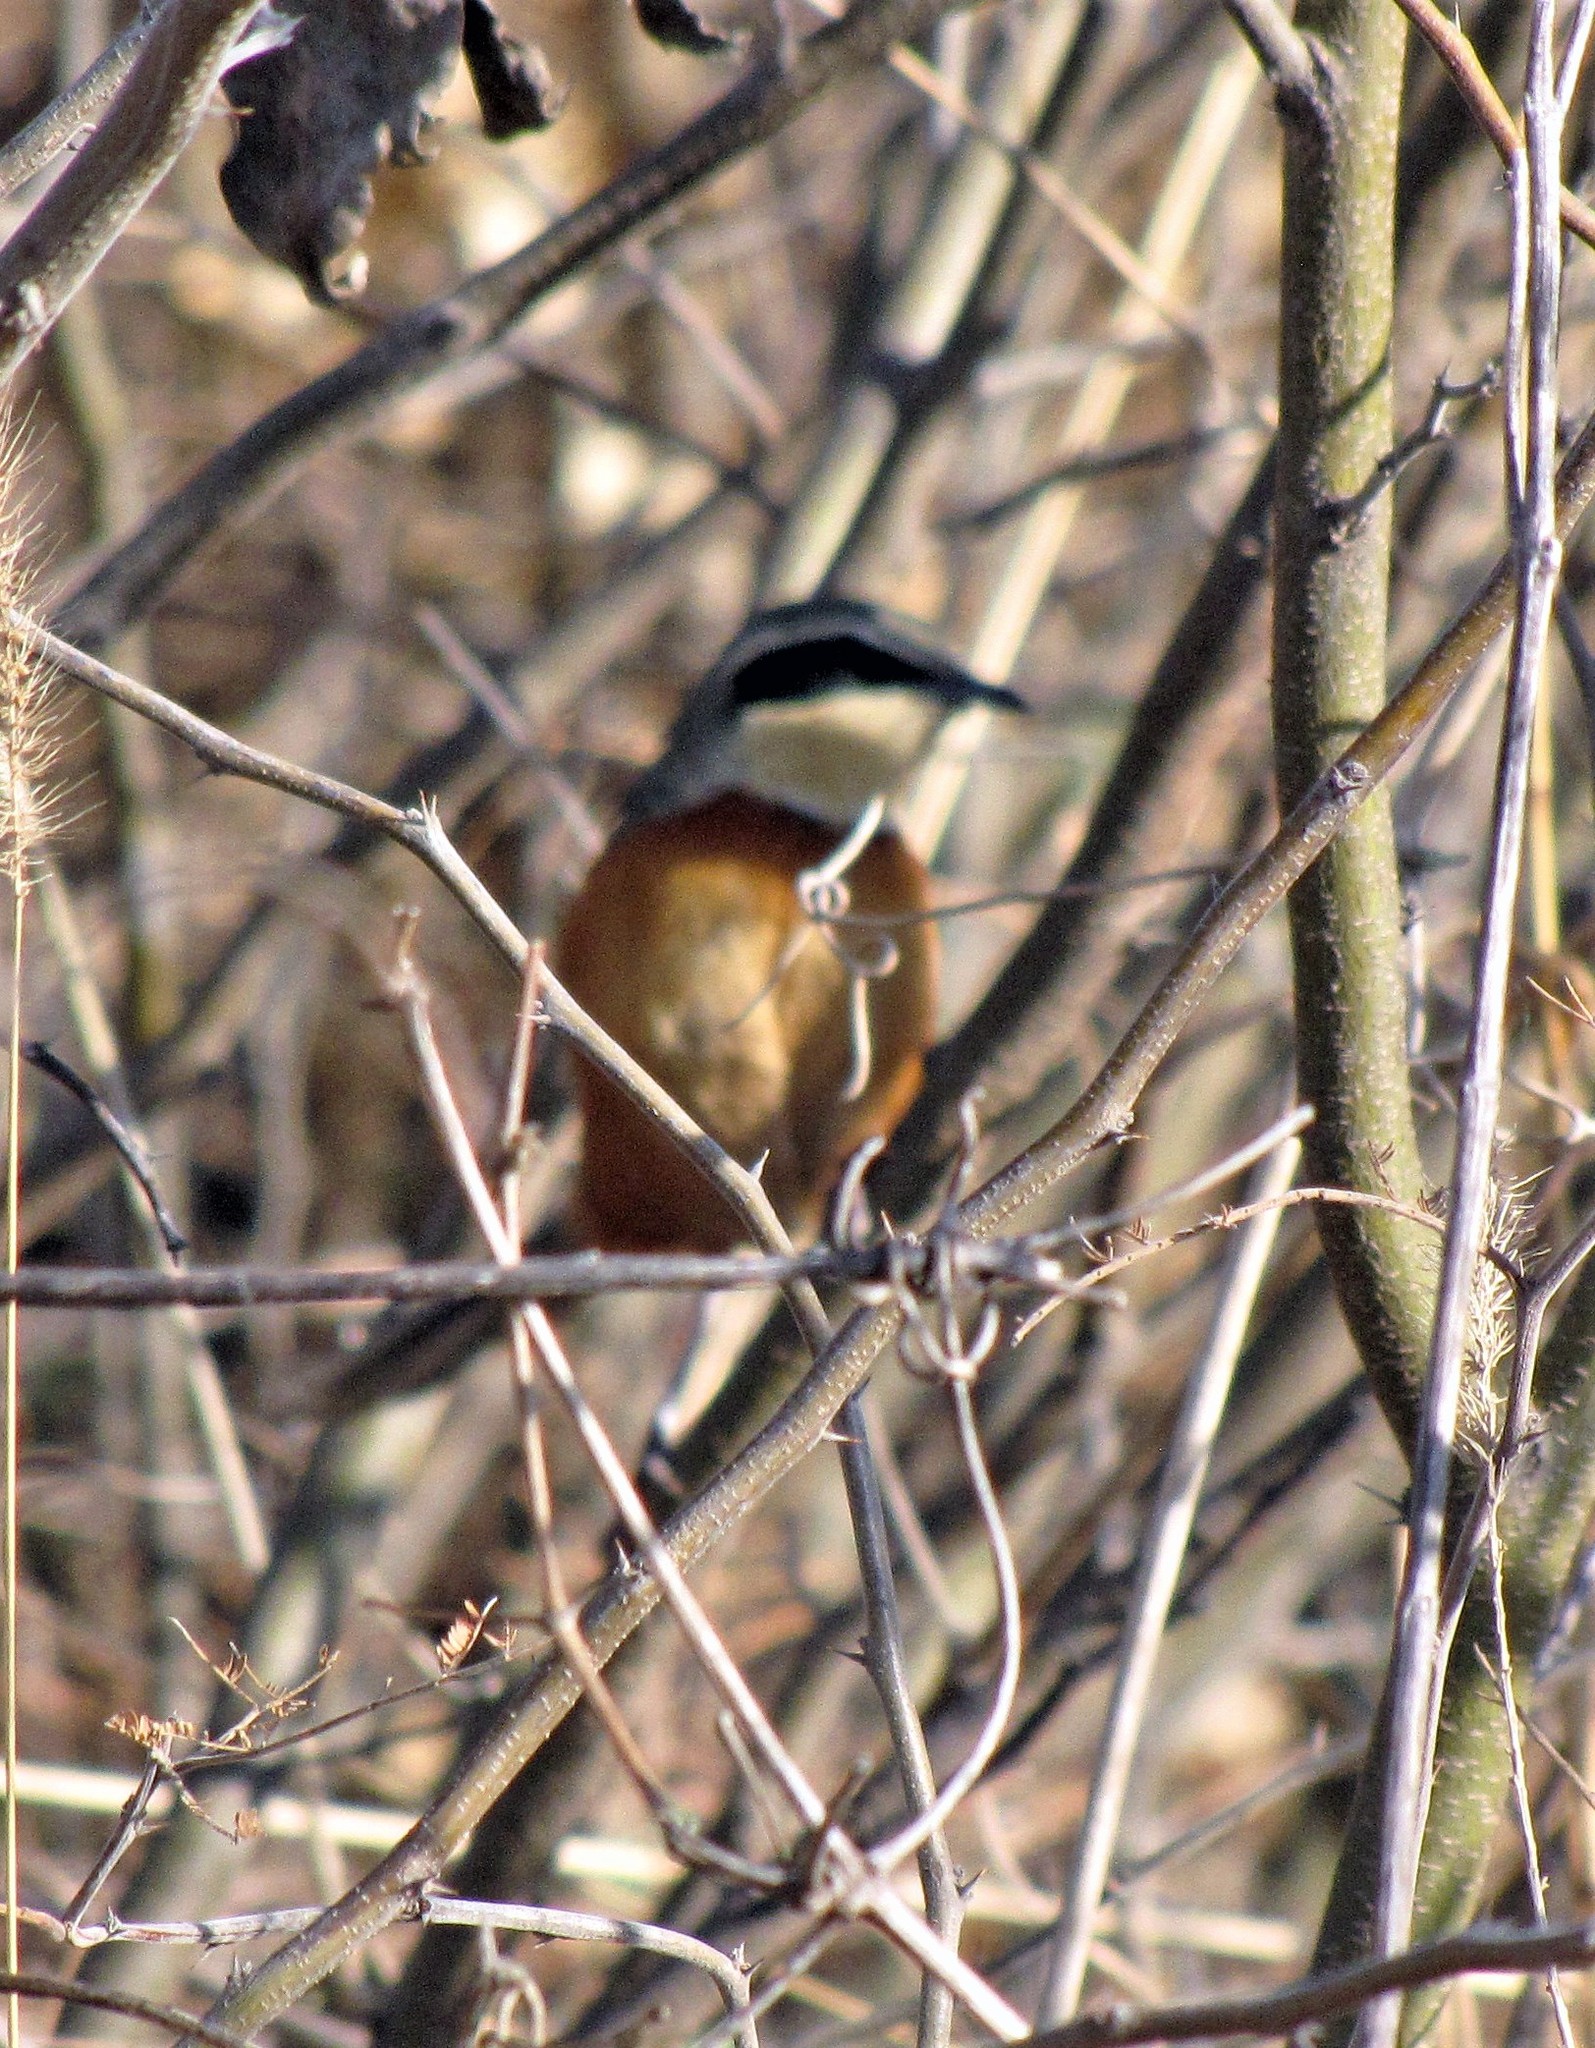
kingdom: Animalia
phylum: Chordata
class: Aves
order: Passeriformes
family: Melanopareiidae
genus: Melanopareia
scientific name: Melanopareia maximiliani
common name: Olive-crowned crescentchest
